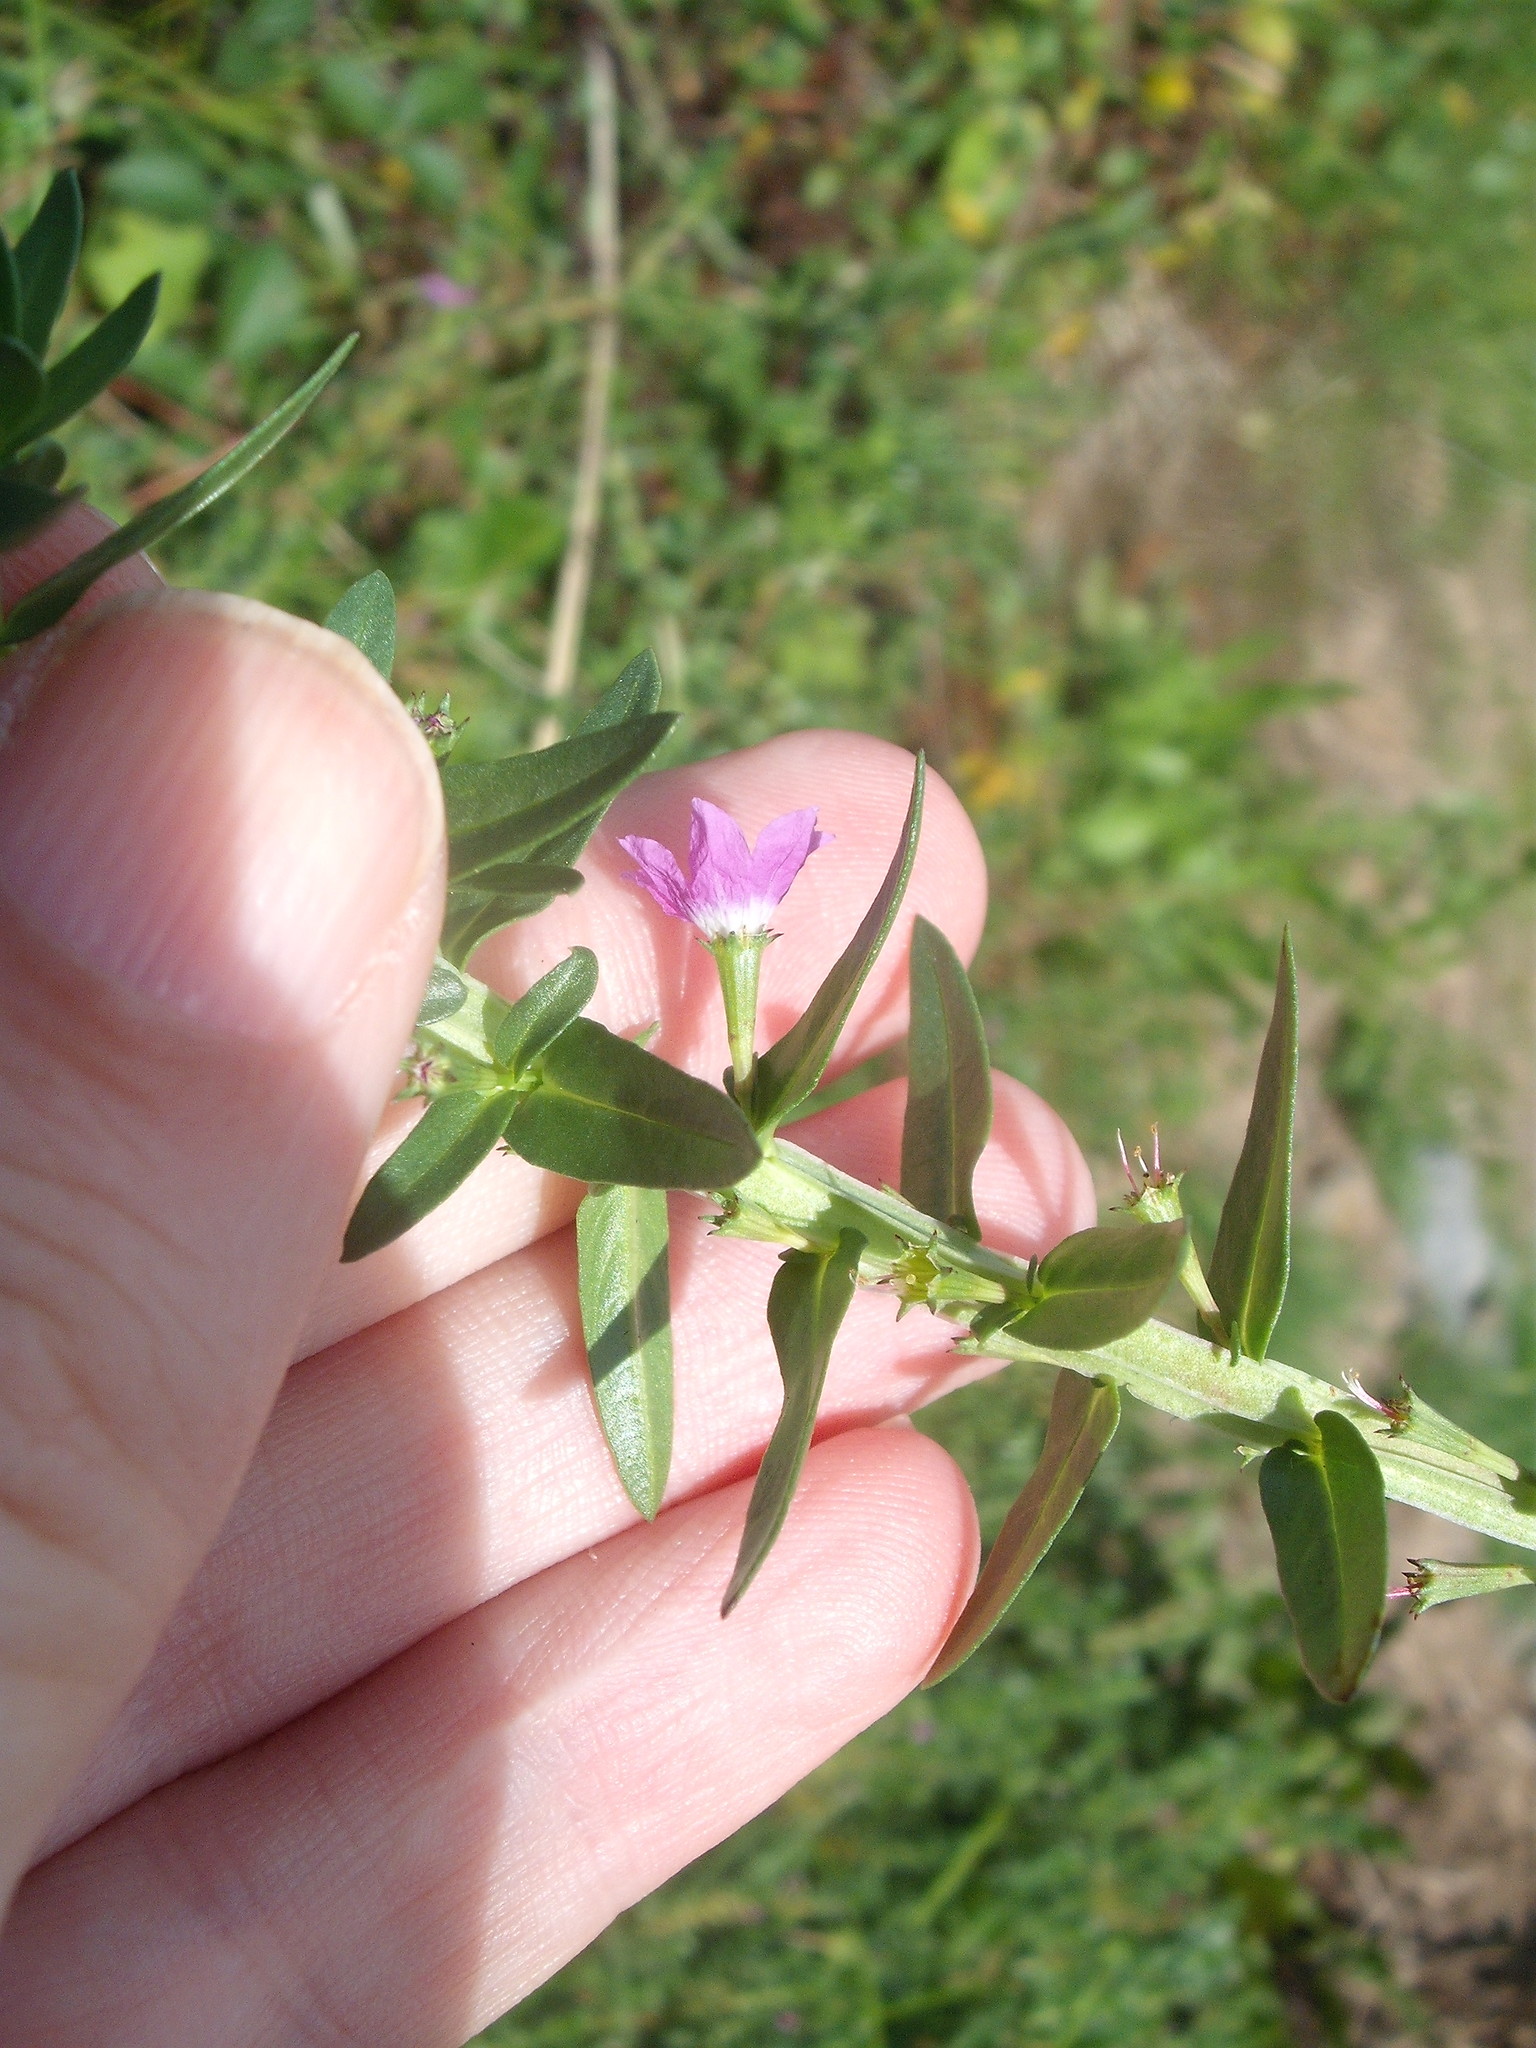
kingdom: Plantae
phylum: Tracheophyta
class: Magnoliopsida
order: Myrtales
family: Lythraceae
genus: Lythrum
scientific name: Lythrum junceum
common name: False grass-poly
